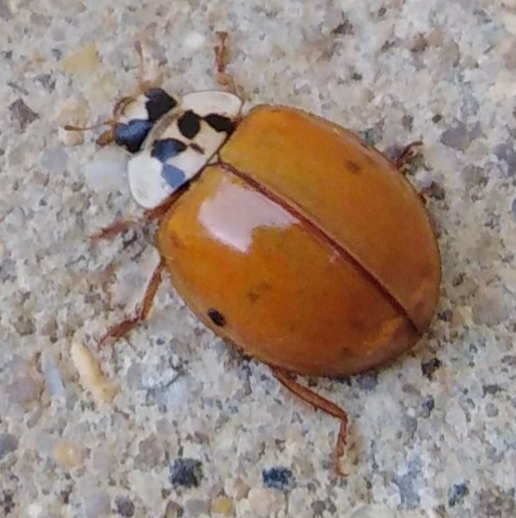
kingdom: Animalia
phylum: Arthropoda
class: Insecta
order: Coleoptera
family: Coccinellidae
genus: Harmonia
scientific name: Harmonia axyridis
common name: Harlequin ladybird
